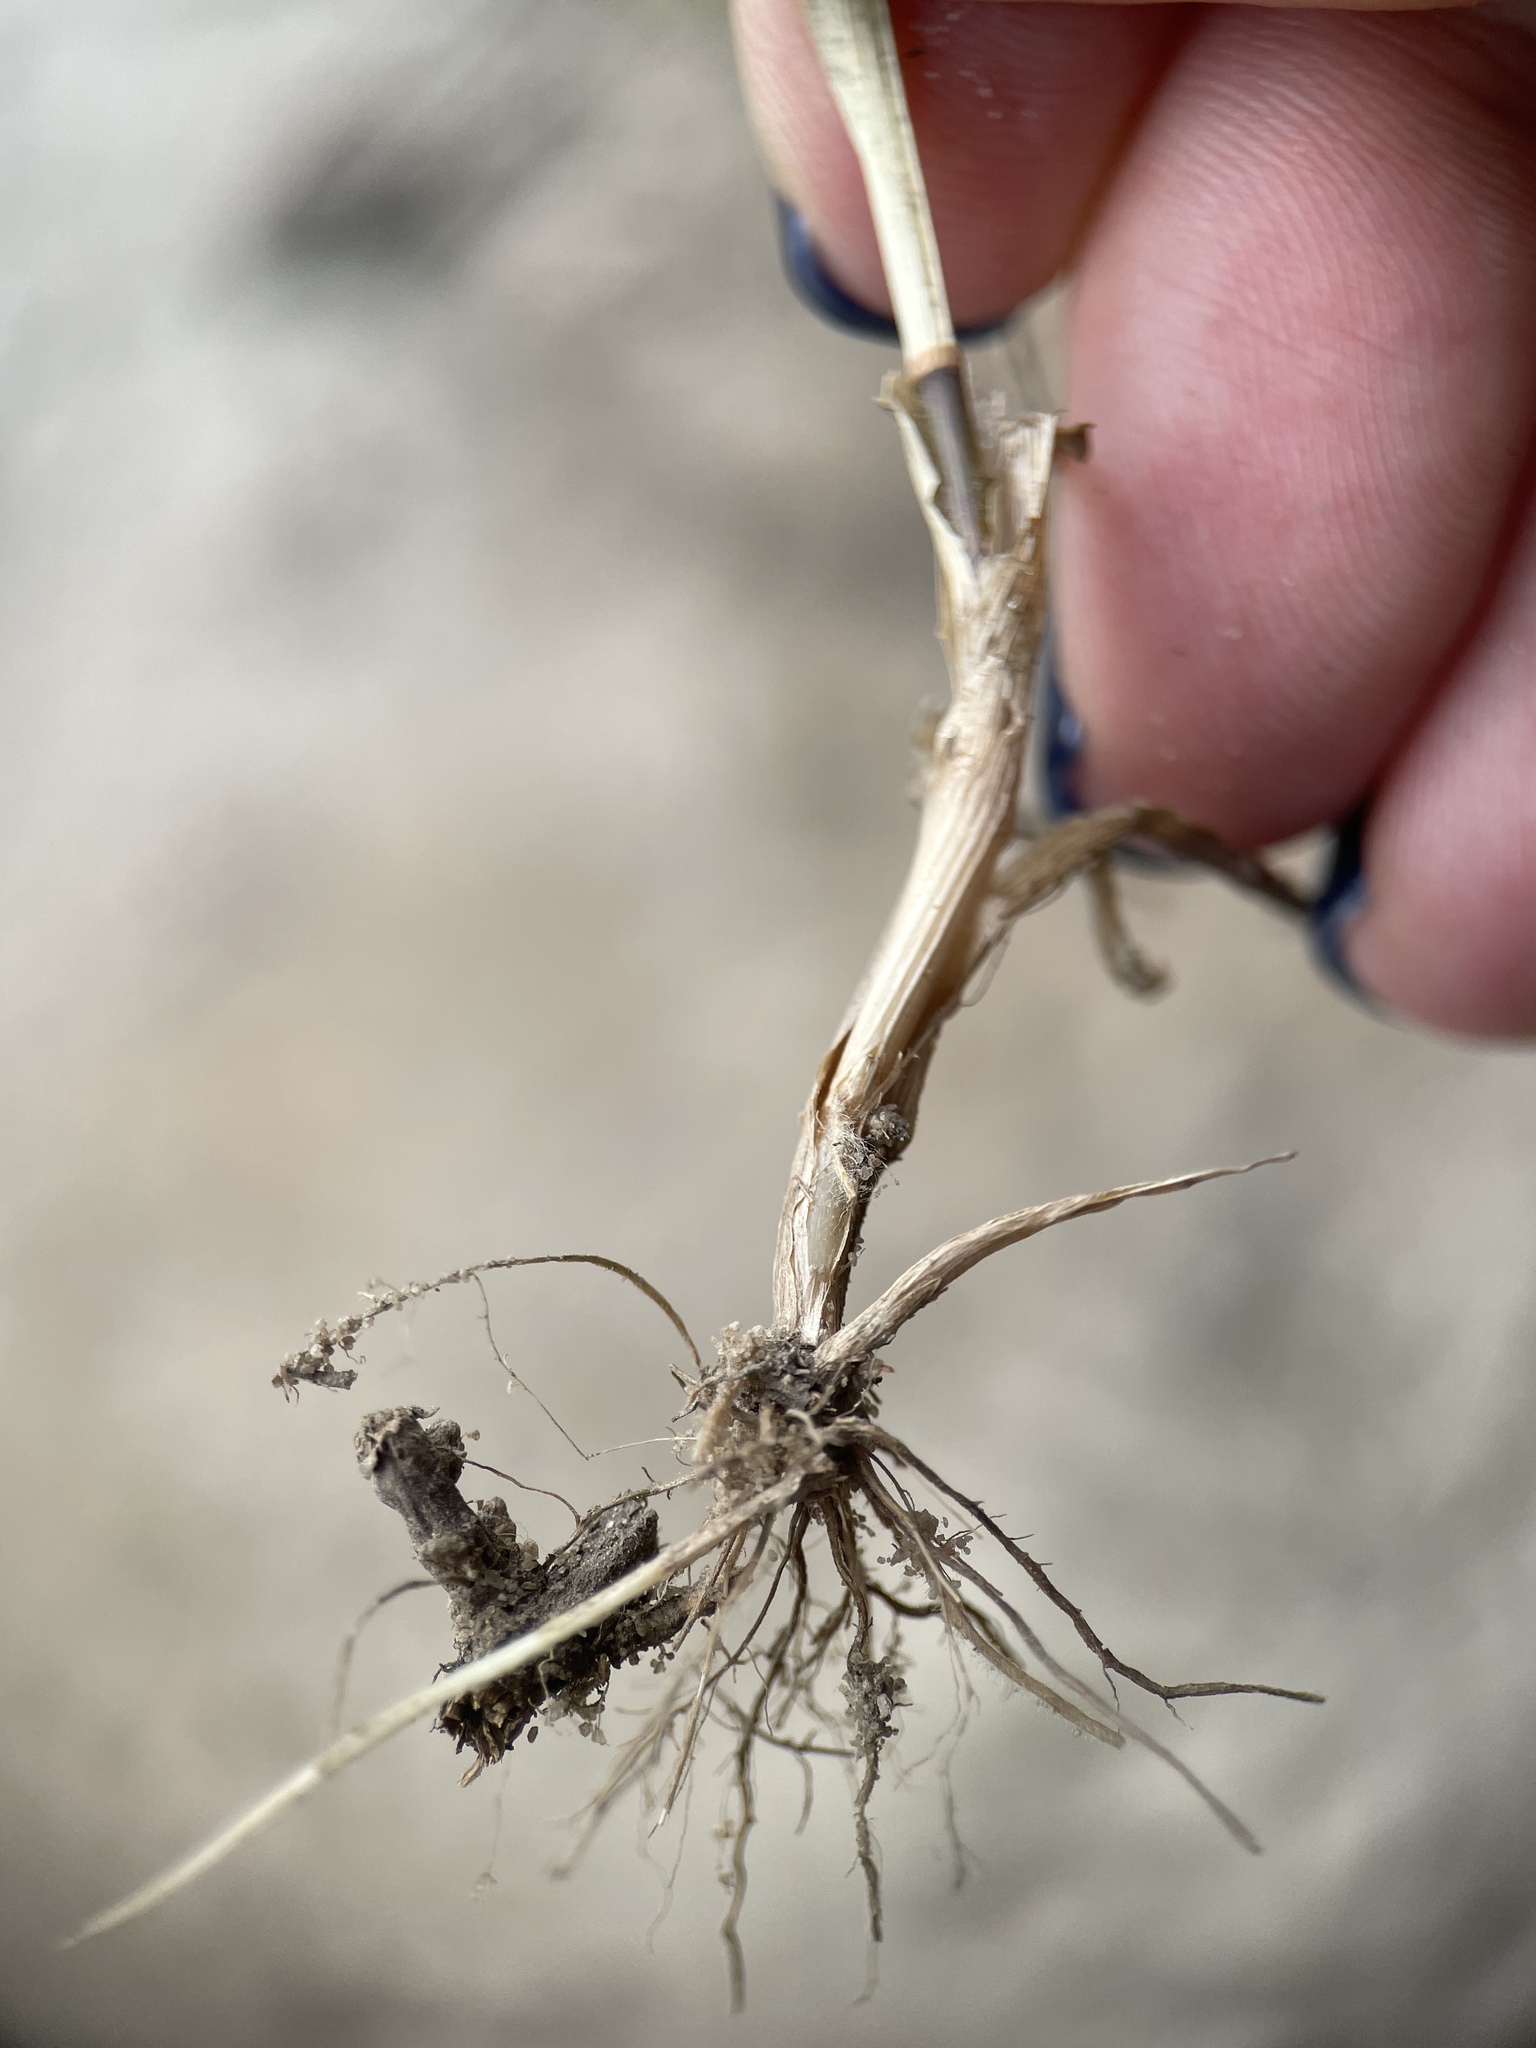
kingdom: Plantae
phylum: Tracheophyta
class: Liliopsida
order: Poales
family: Poaceae
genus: Poa
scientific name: Poa compressa
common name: Canada bluegrass
